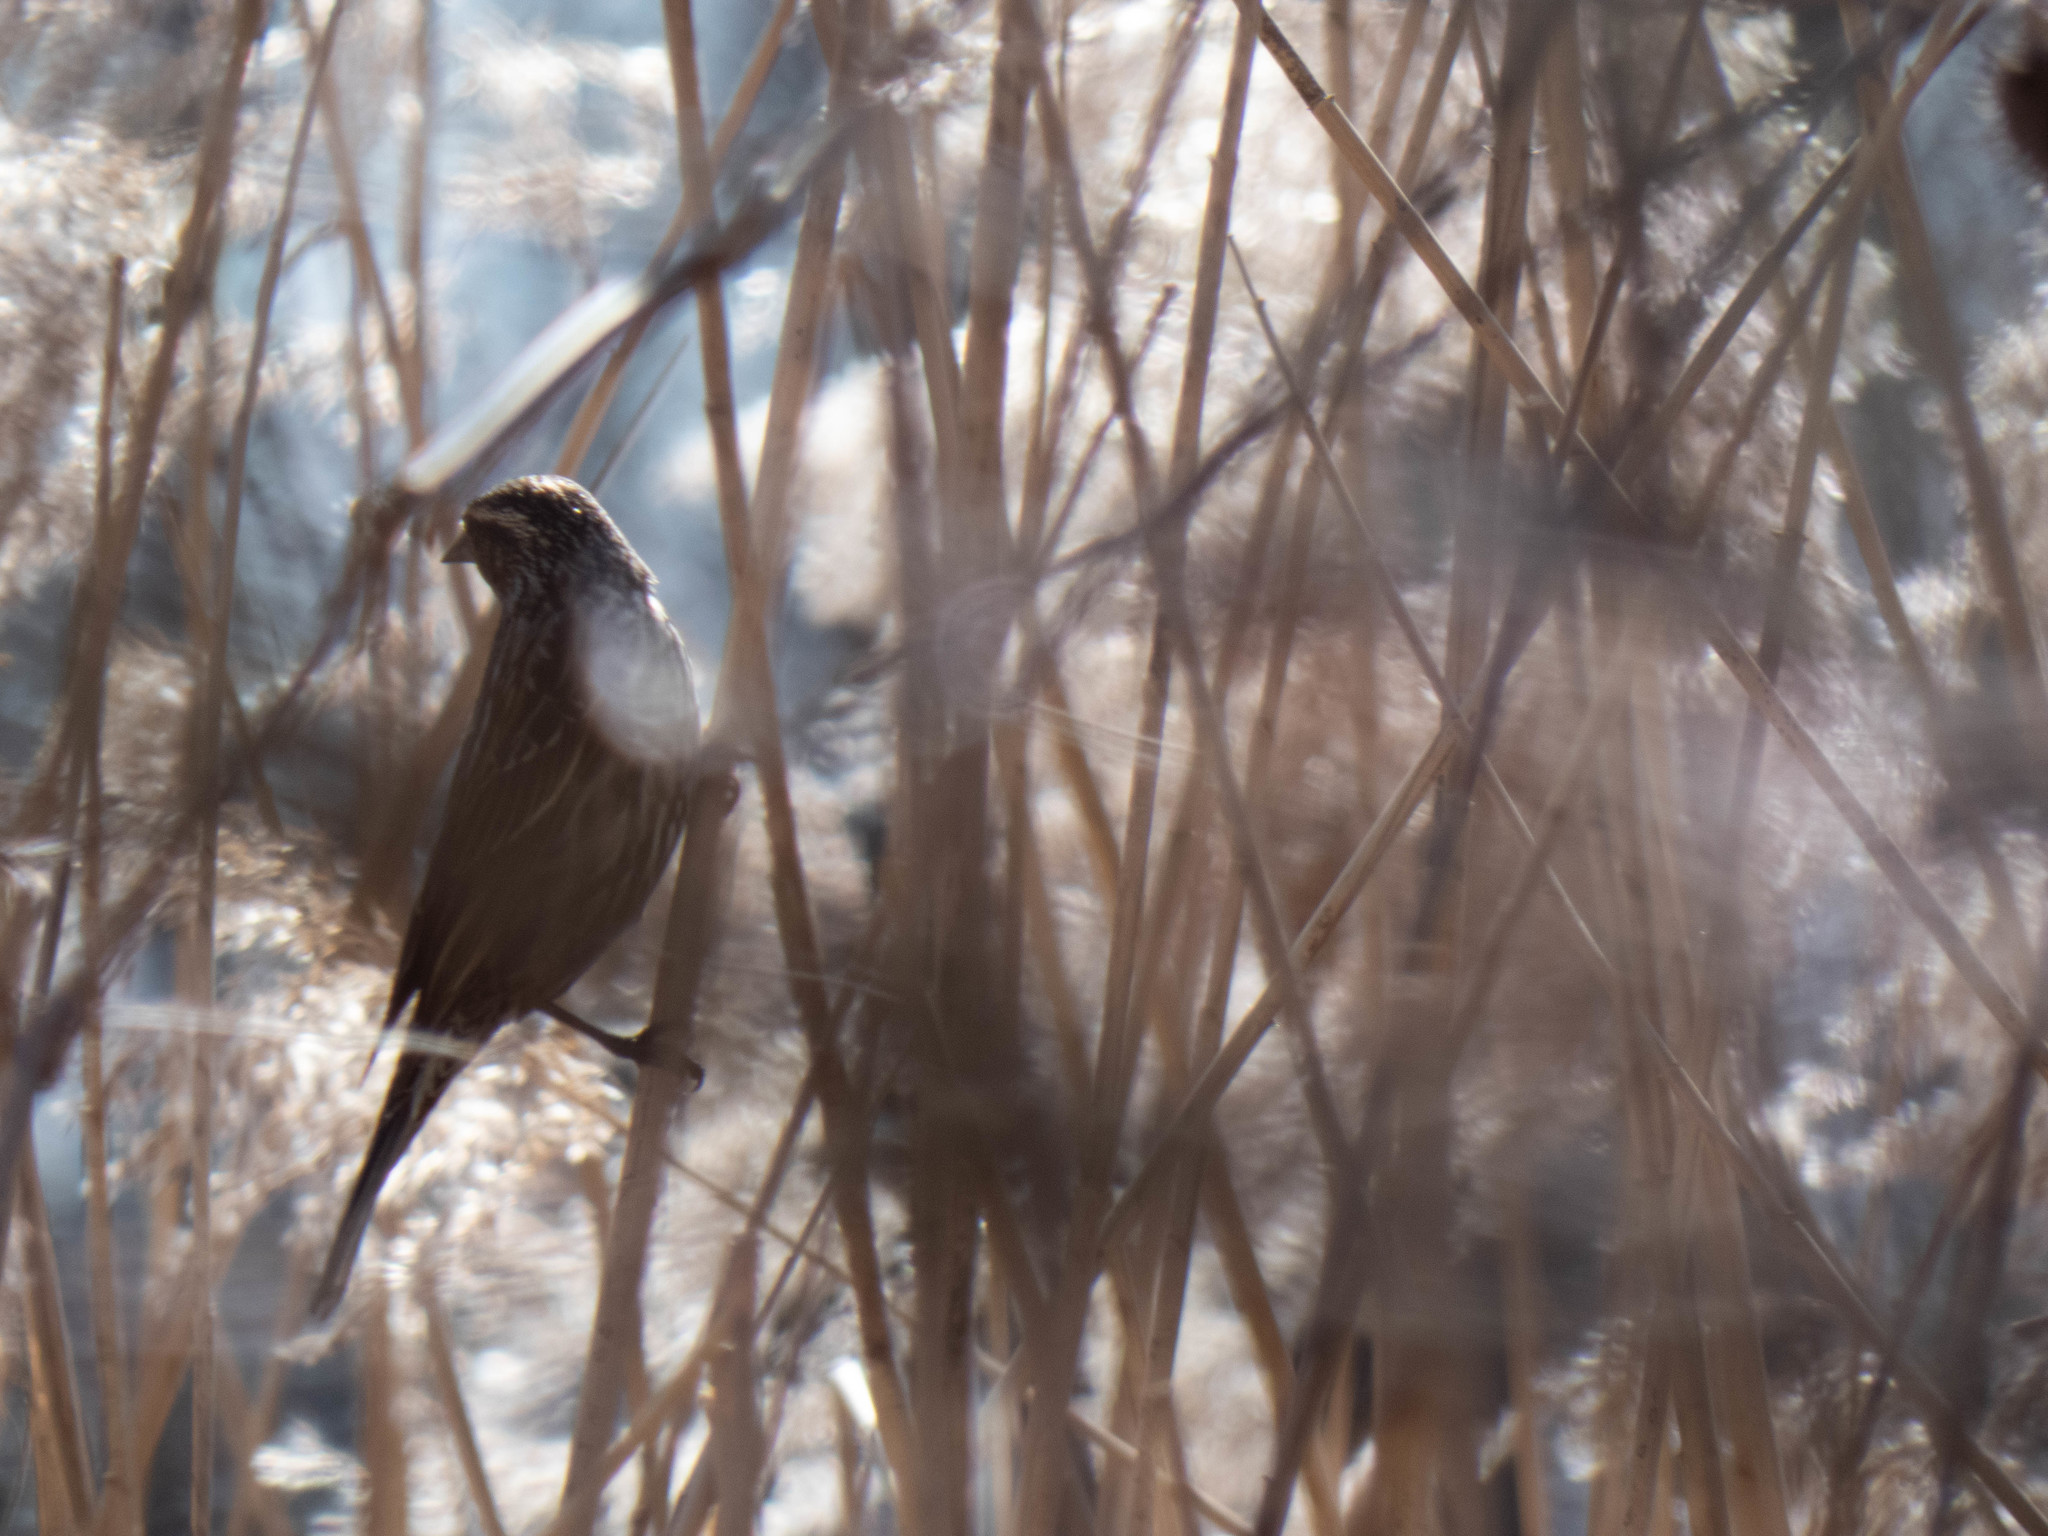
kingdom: Animalia
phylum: Chordata
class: Aves
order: Passeriformes
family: Icteridae
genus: Agelaius
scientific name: Agelaius phoeniceus
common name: Red-winged blackbird
